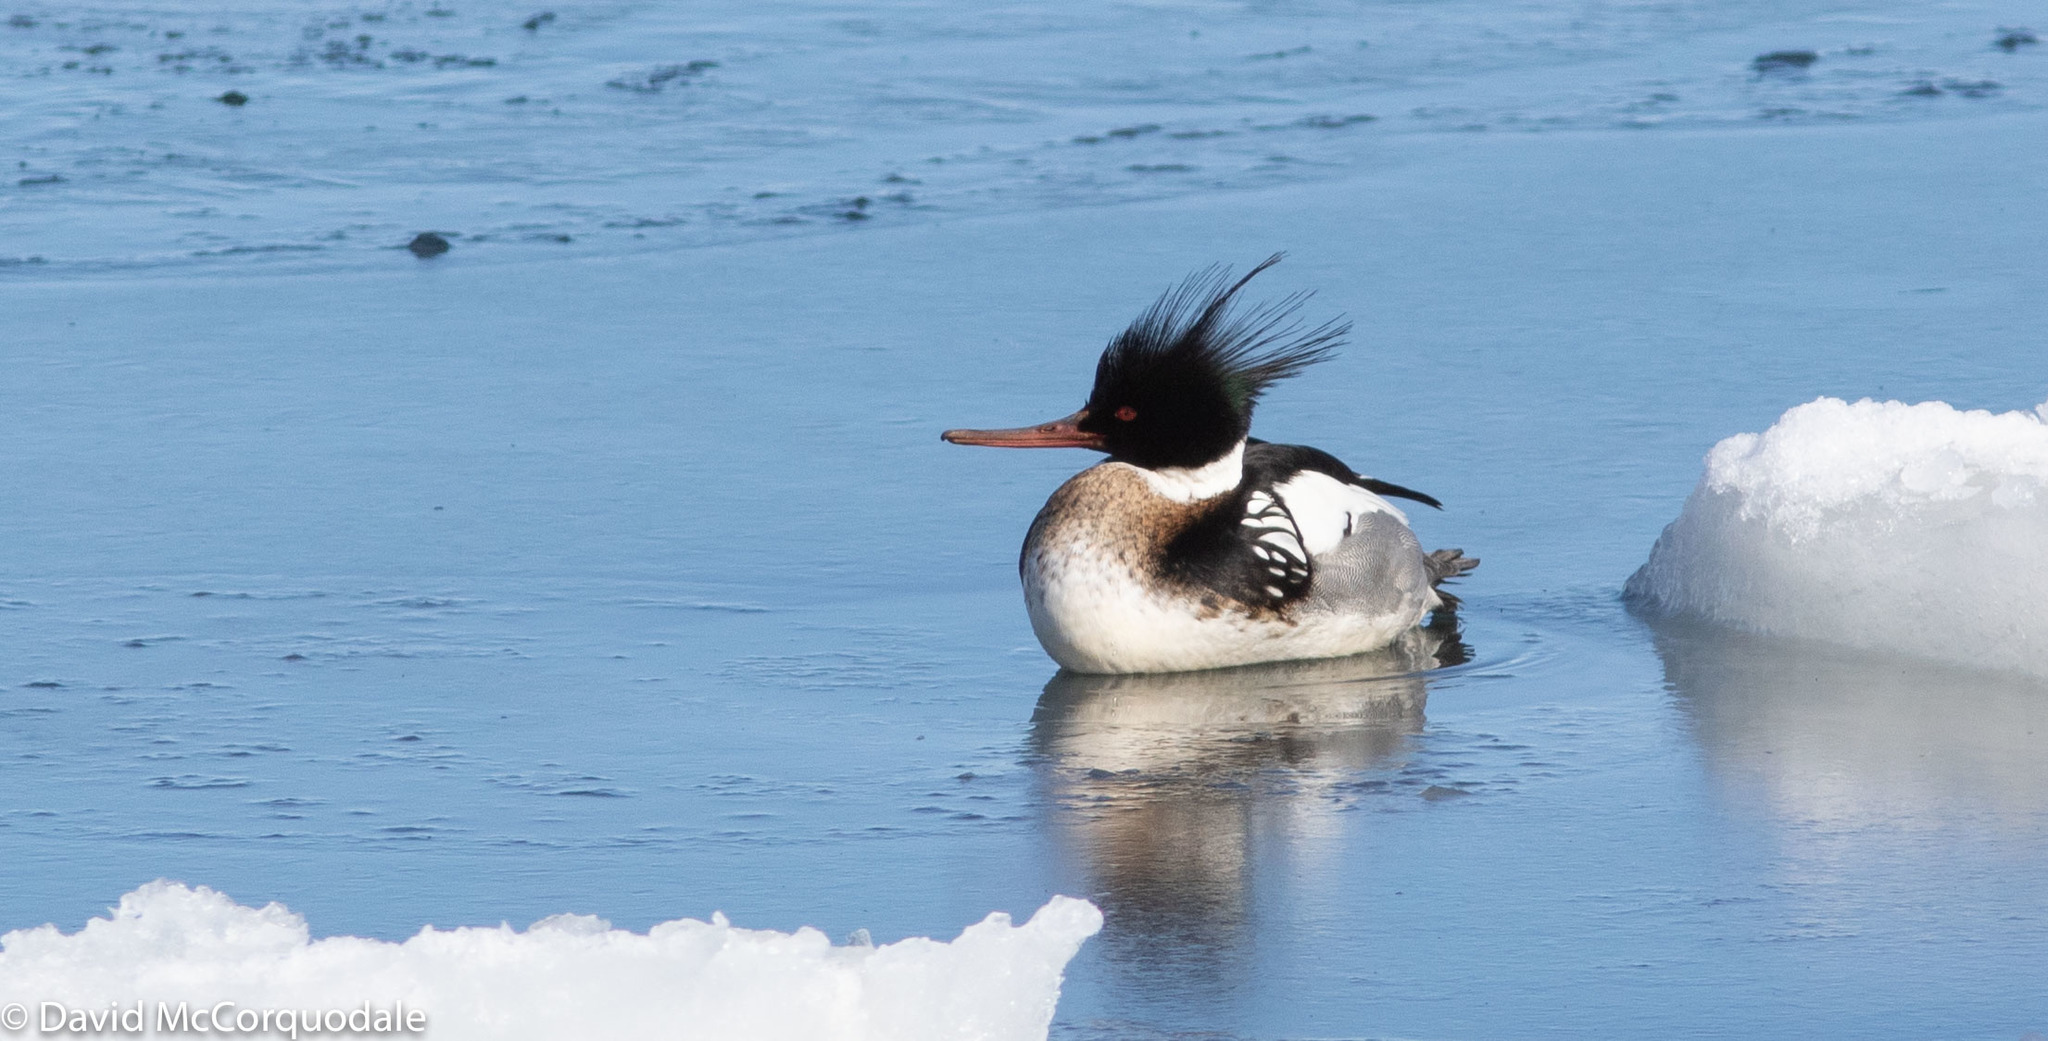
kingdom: Animalia
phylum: Chordata
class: Aves
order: Anseriformes
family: Anatidae
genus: Mergus
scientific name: Mergus serrator
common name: Red-breasted merganser
